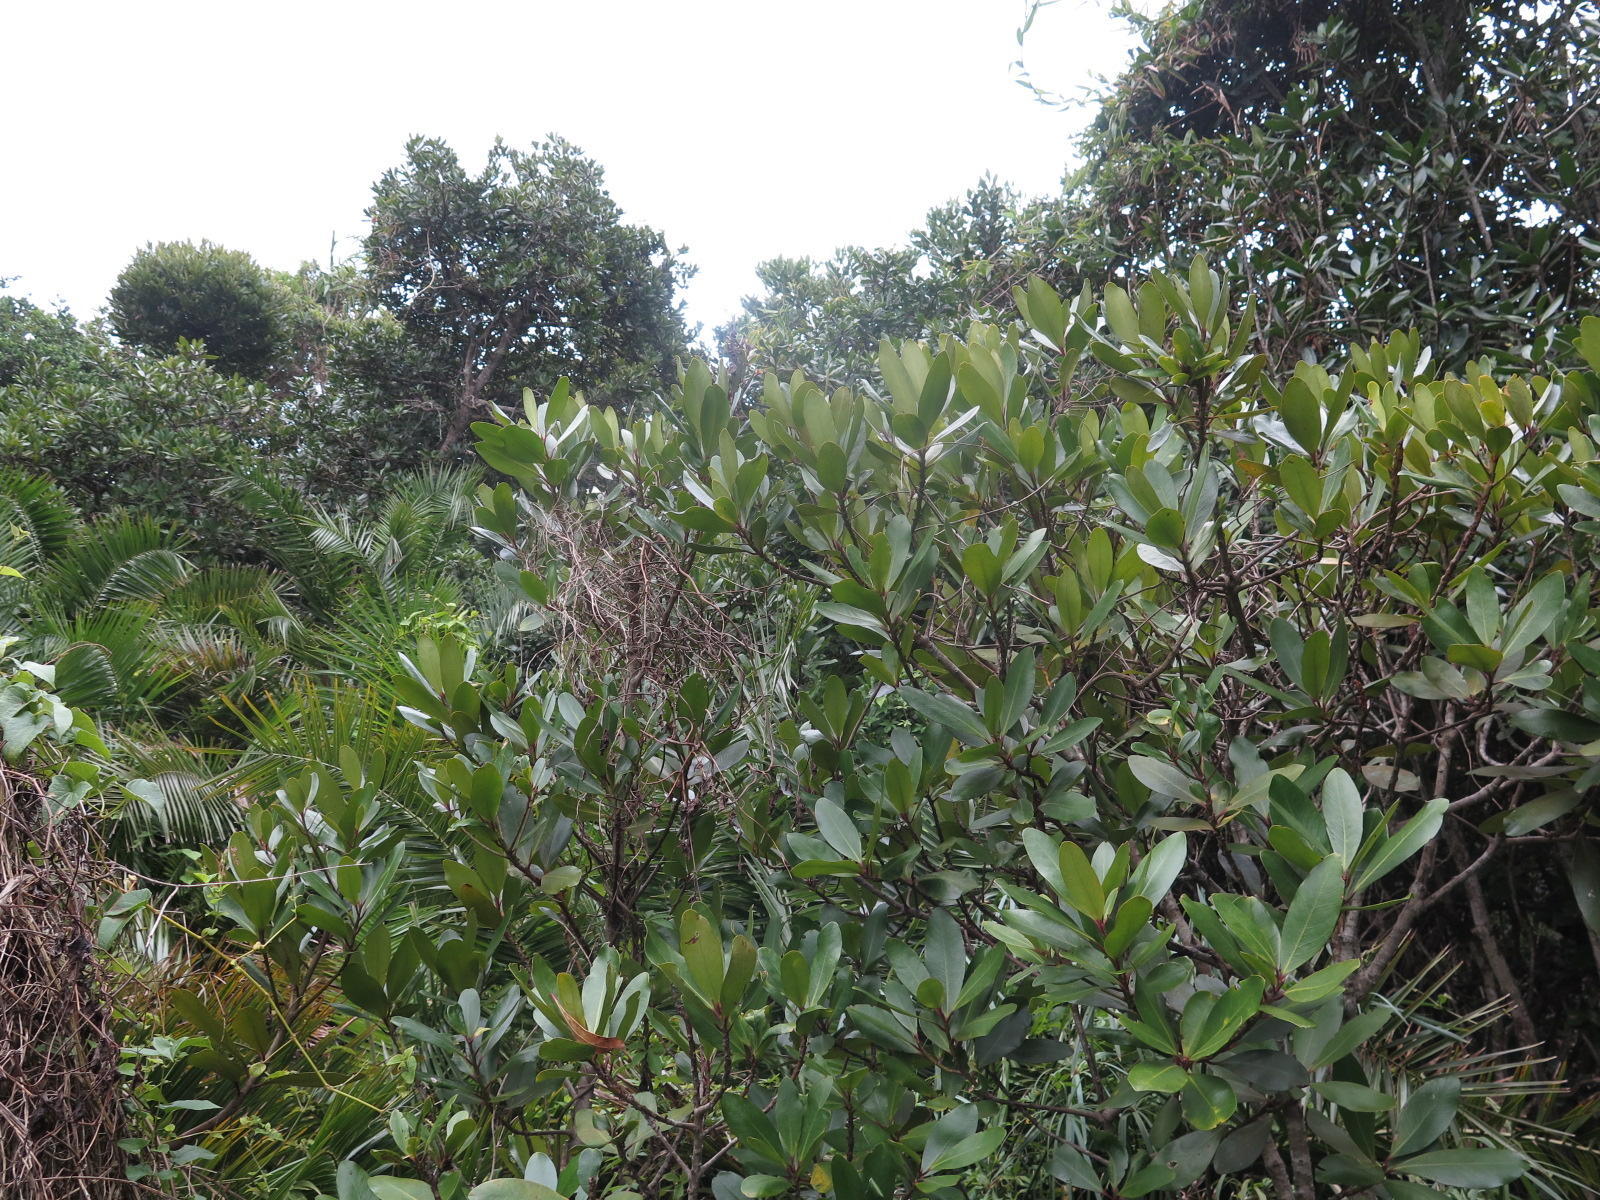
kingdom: Plantae
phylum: Tracheophyta
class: Magnoliopsida
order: Ericales
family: Primulaceae
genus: Myrsine
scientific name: Myrsine melanophloeos
